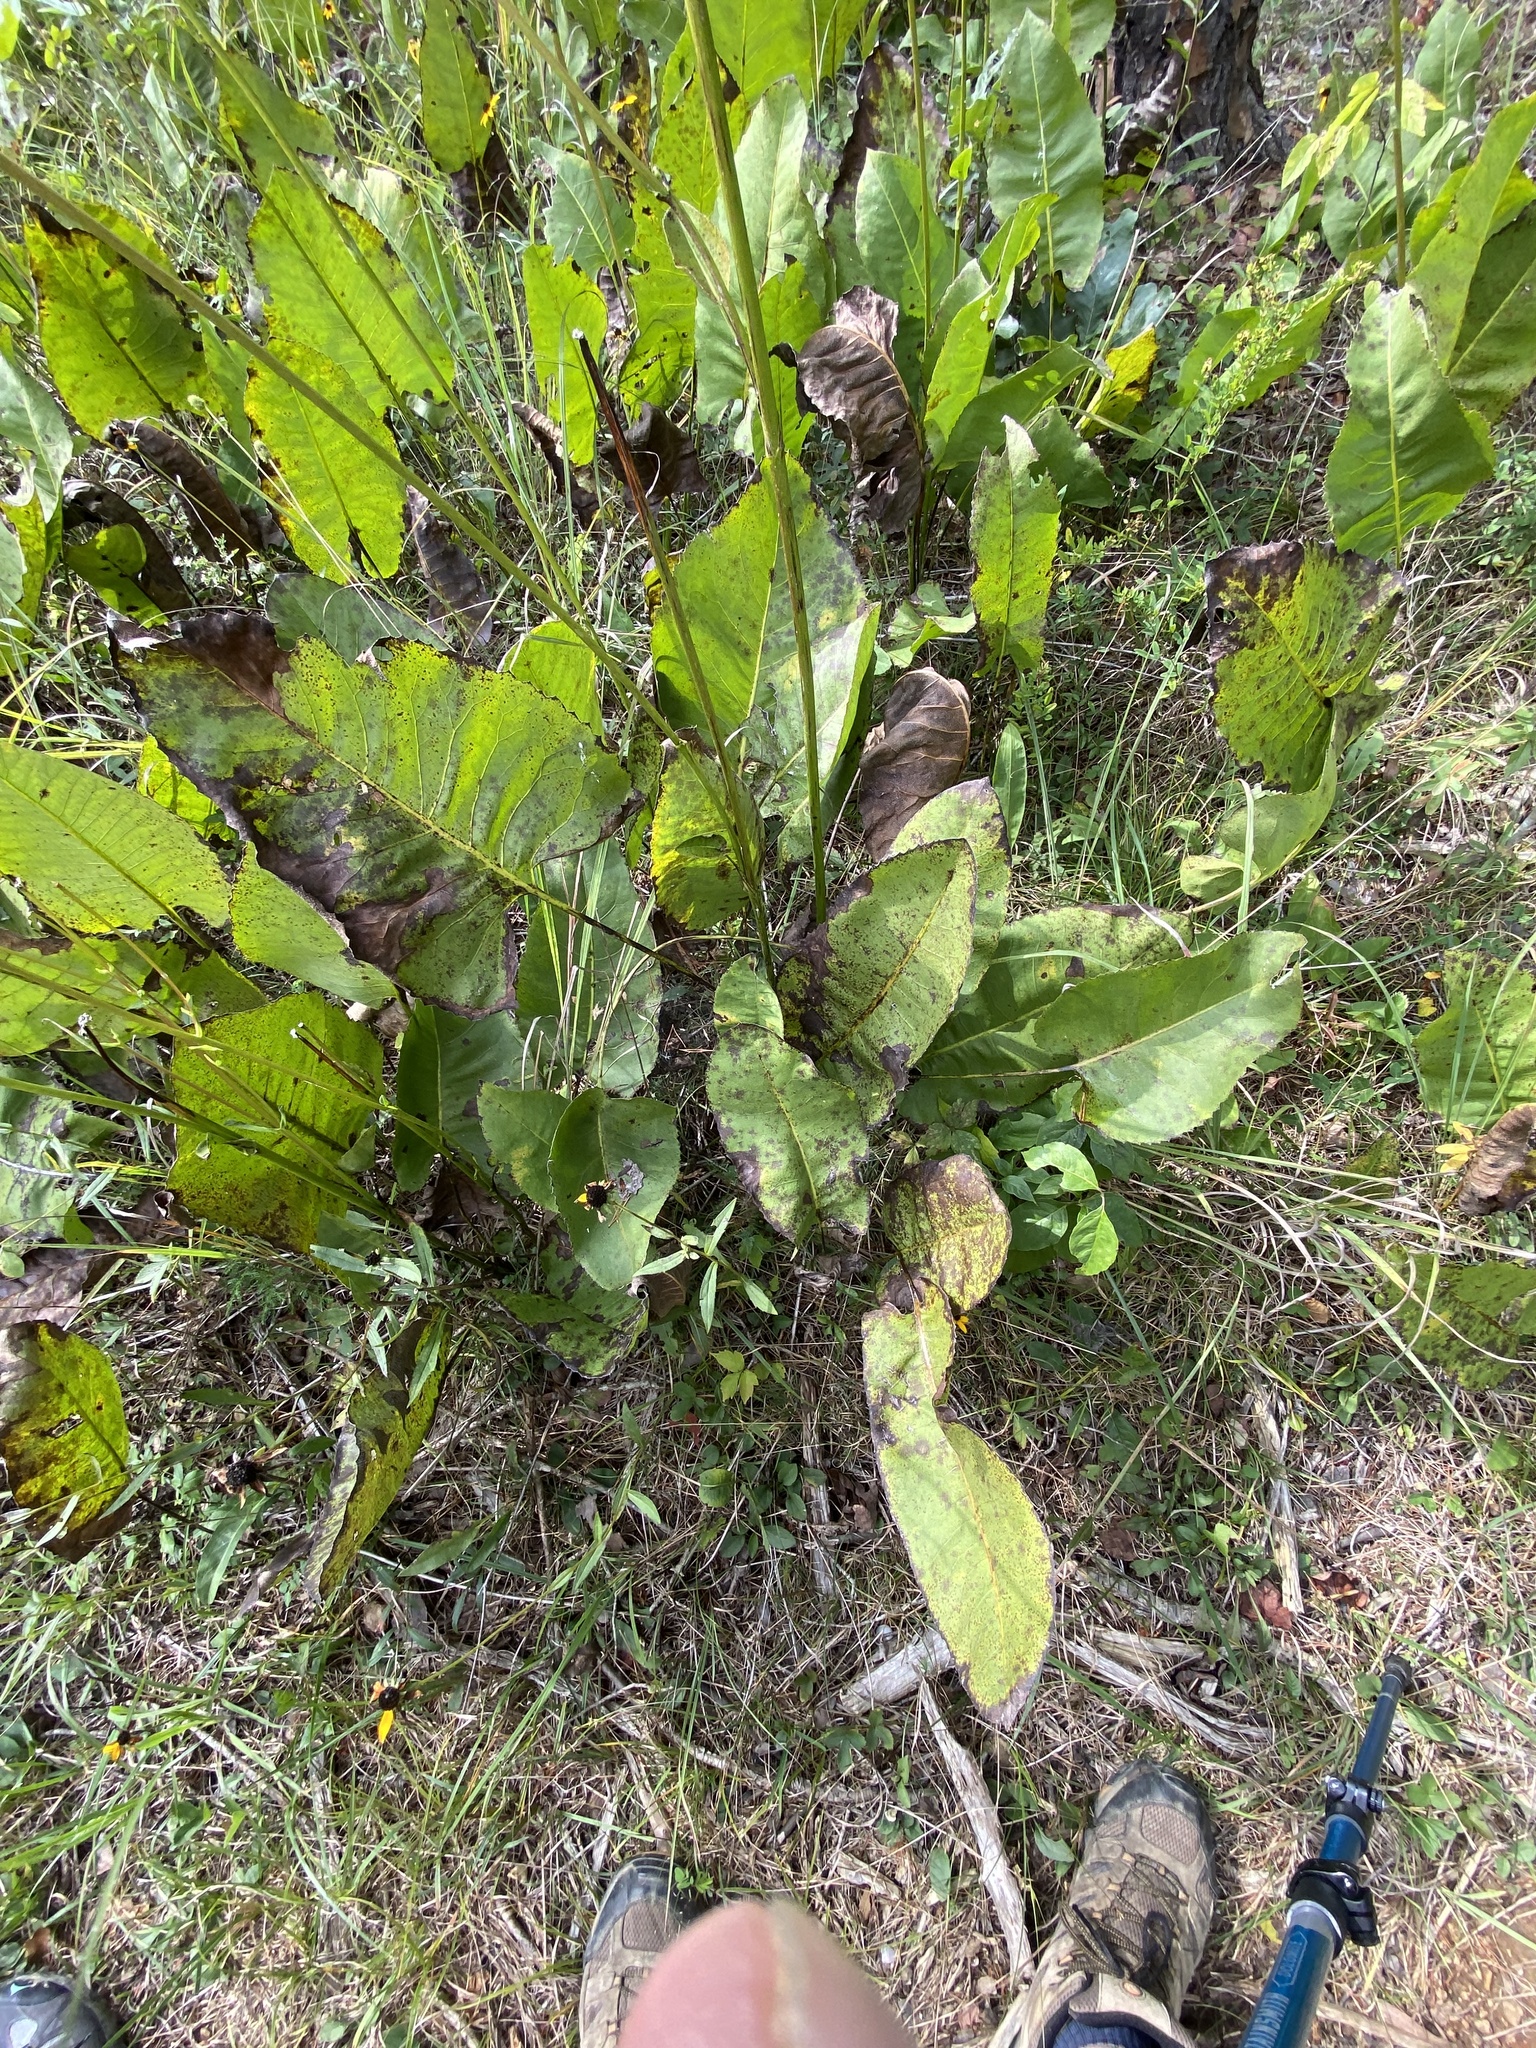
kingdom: Plantae
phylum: Tracheophyta
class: Magnoliopsida
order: Asterales
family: Asteraceae
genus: Silphium
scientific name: Silphium terebinthinaceum
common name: Basal-leaf rosinweed
